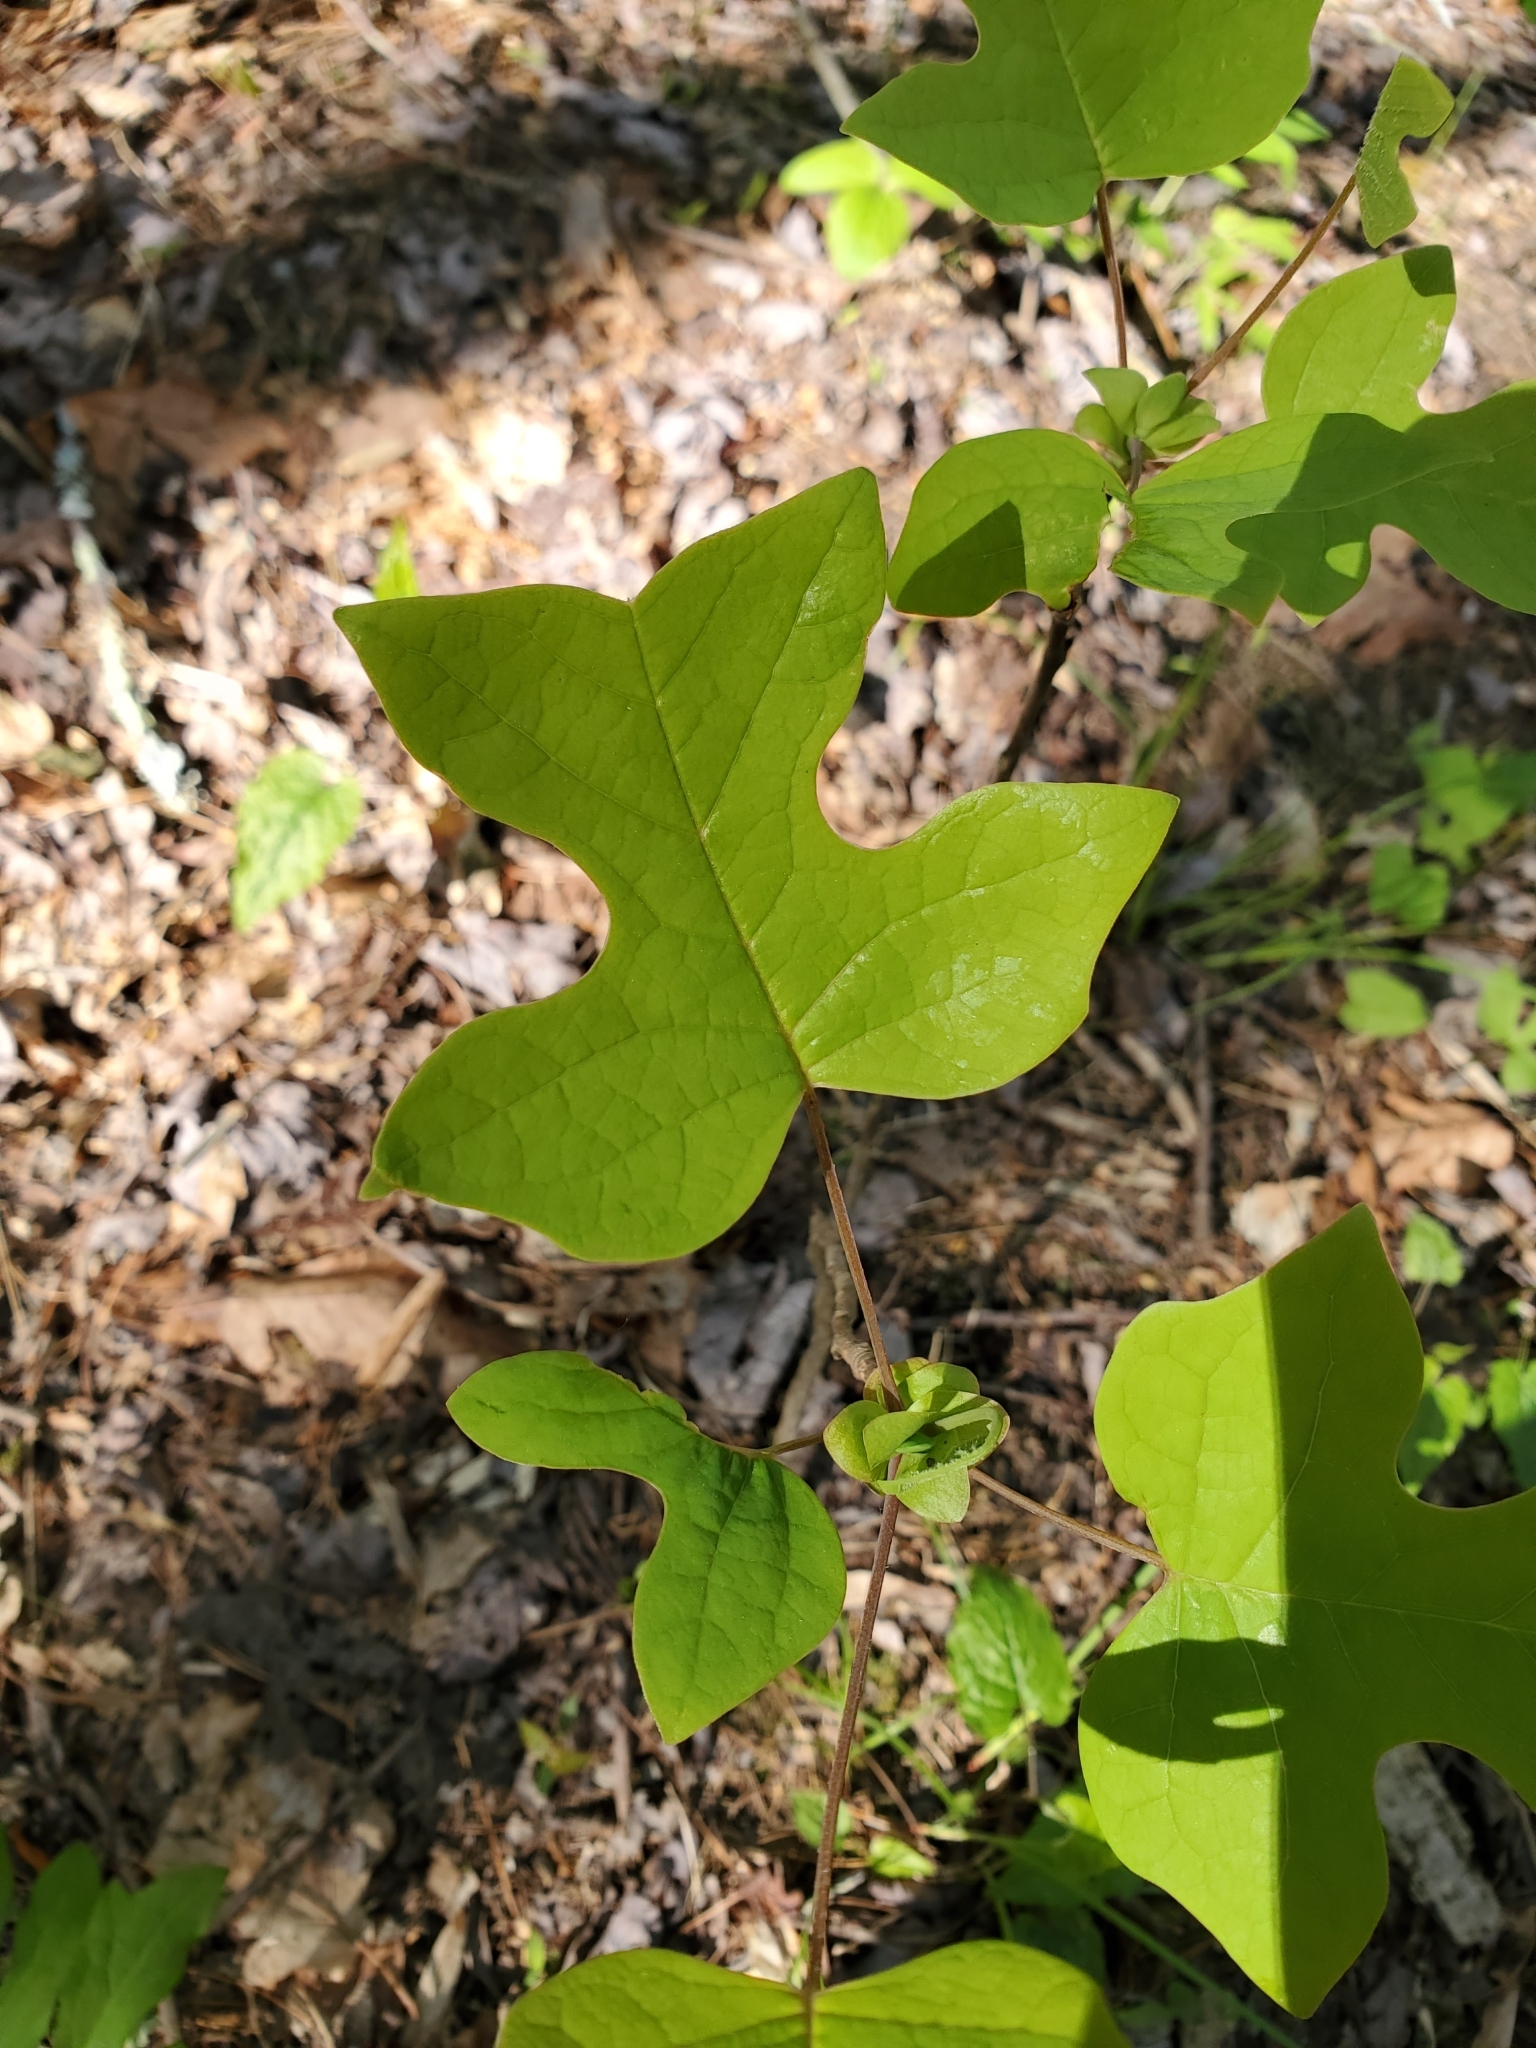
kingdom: Plantae
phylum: Tracheophyta
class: Magnoliopsida
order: Magnoliales
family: Magnoliaceae
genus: Liriodendron
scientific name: Liriodendron tulipifera
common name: Tulip tree
